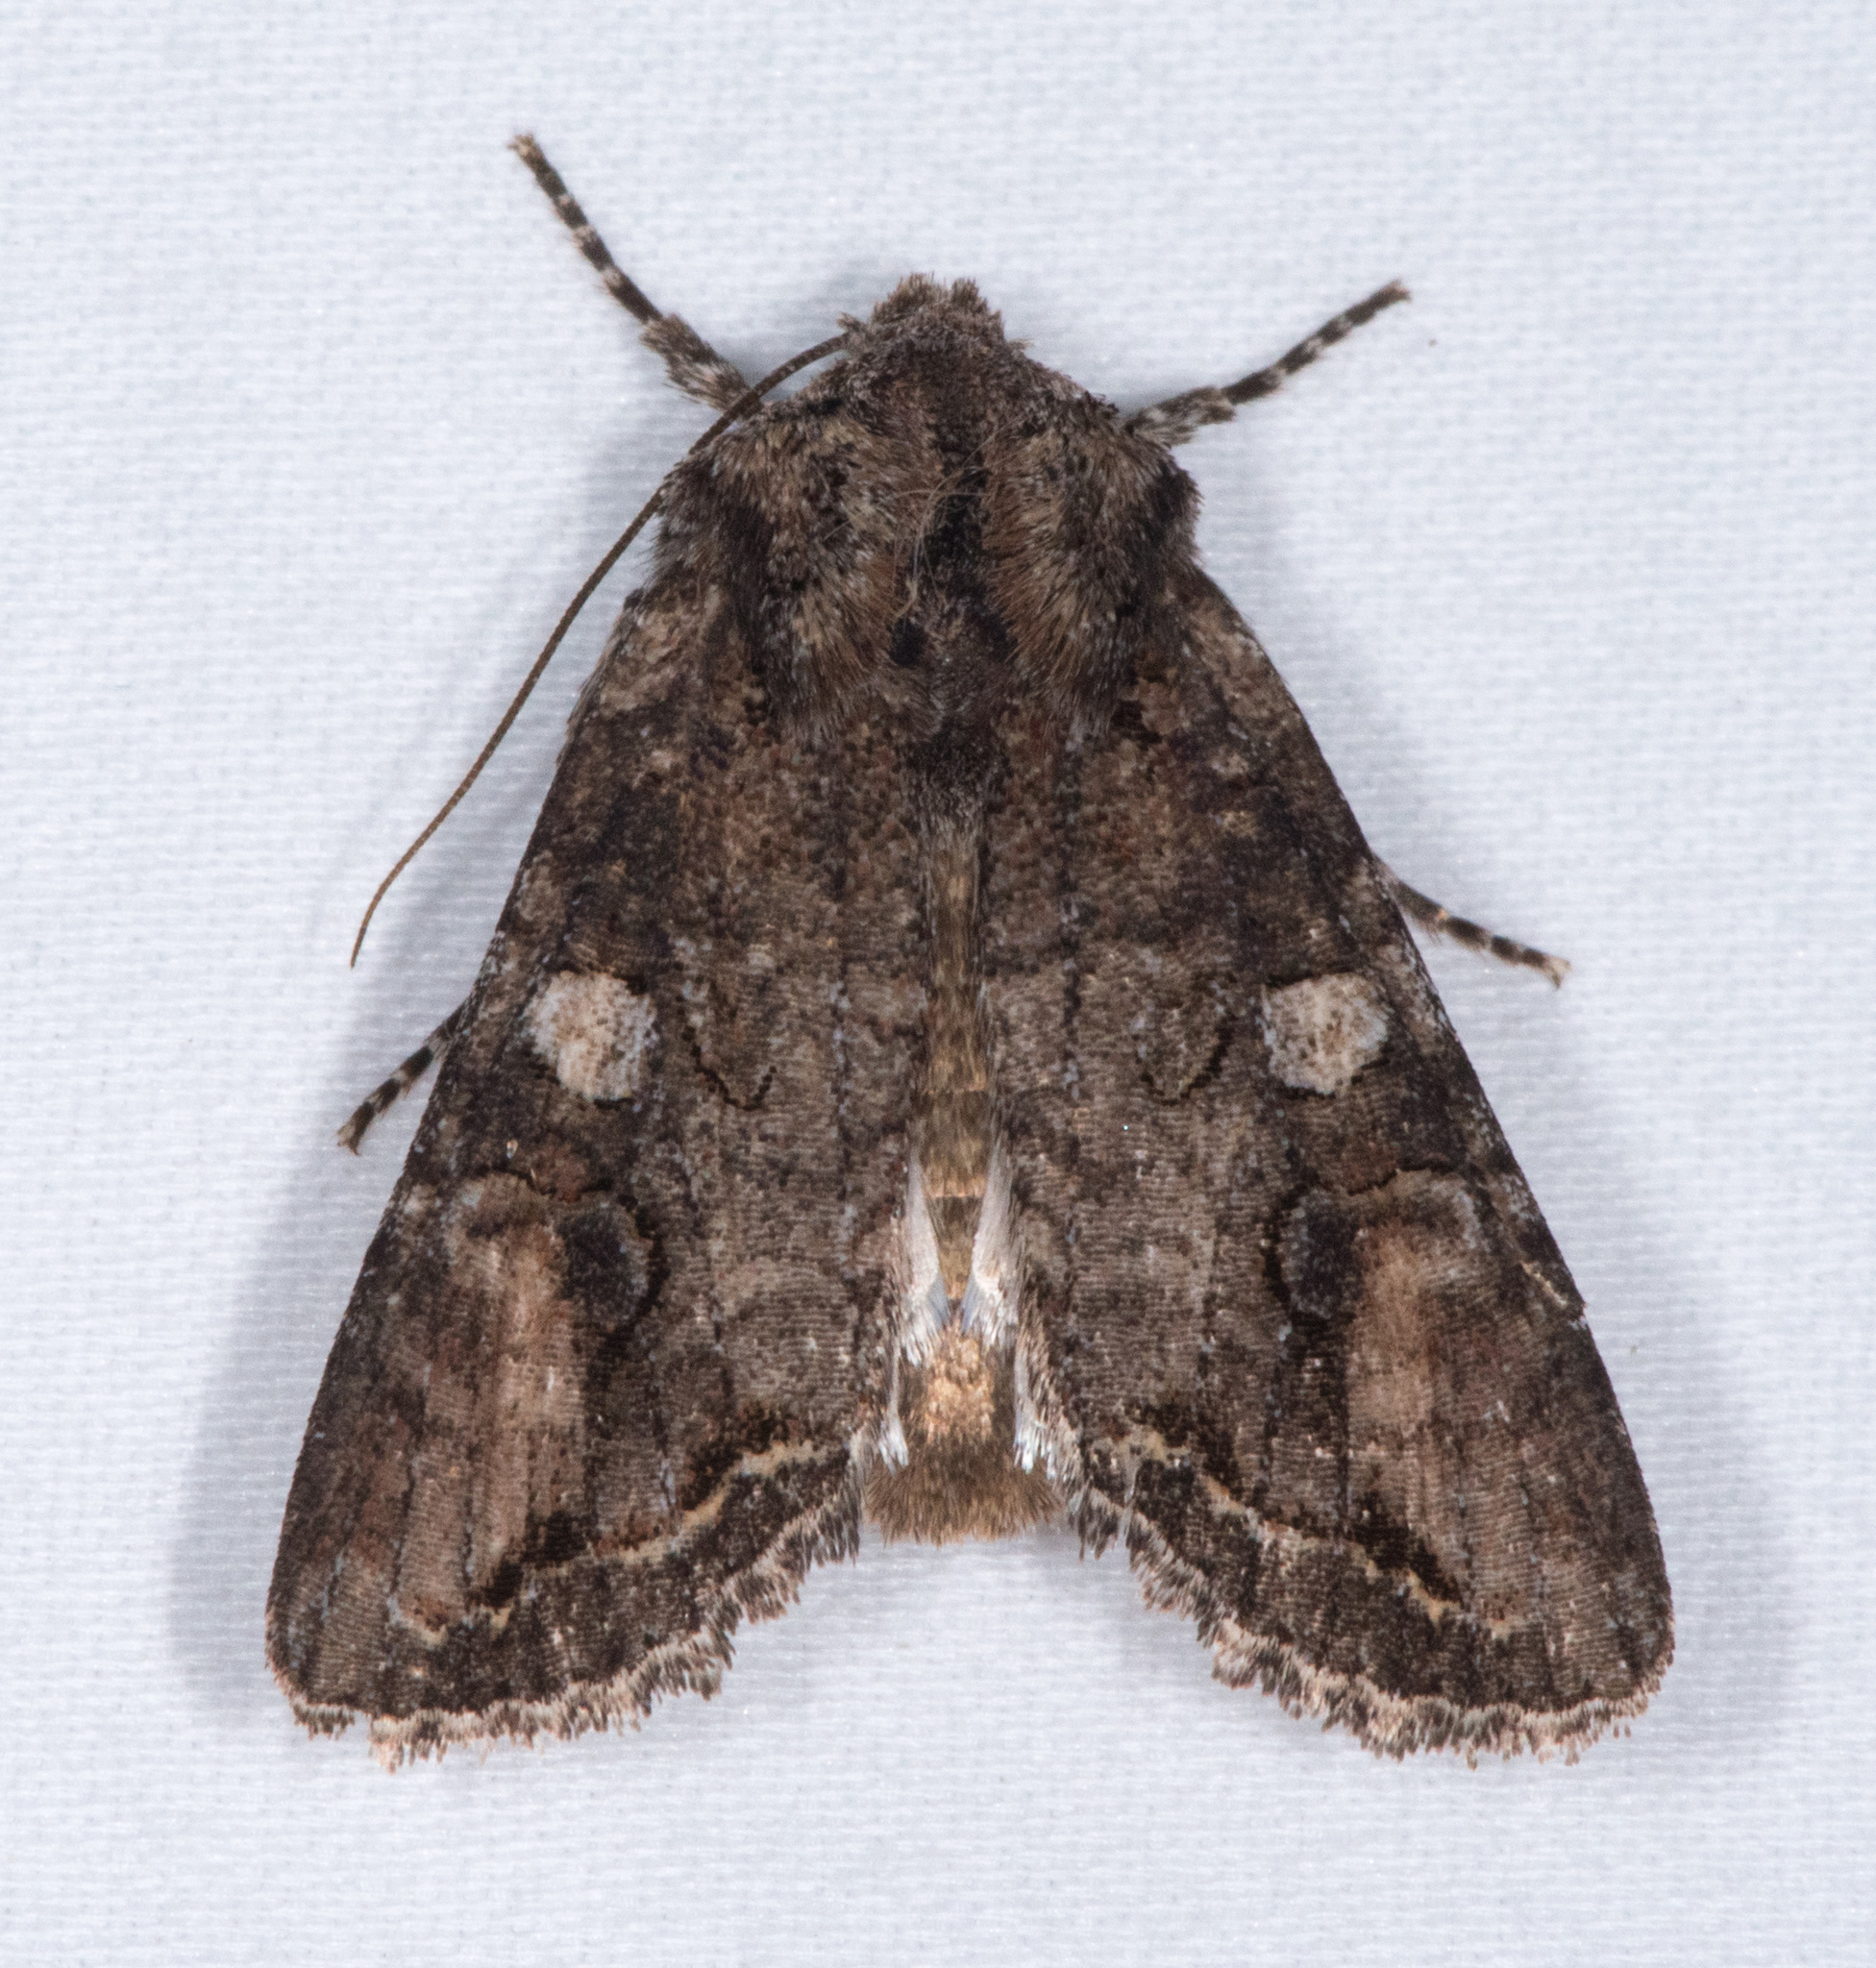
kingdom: Animalia
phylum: Arthropoda
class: Insecta
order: Lepidoptera
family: Noctuidae
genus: Egira
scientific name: Egira perlubens
